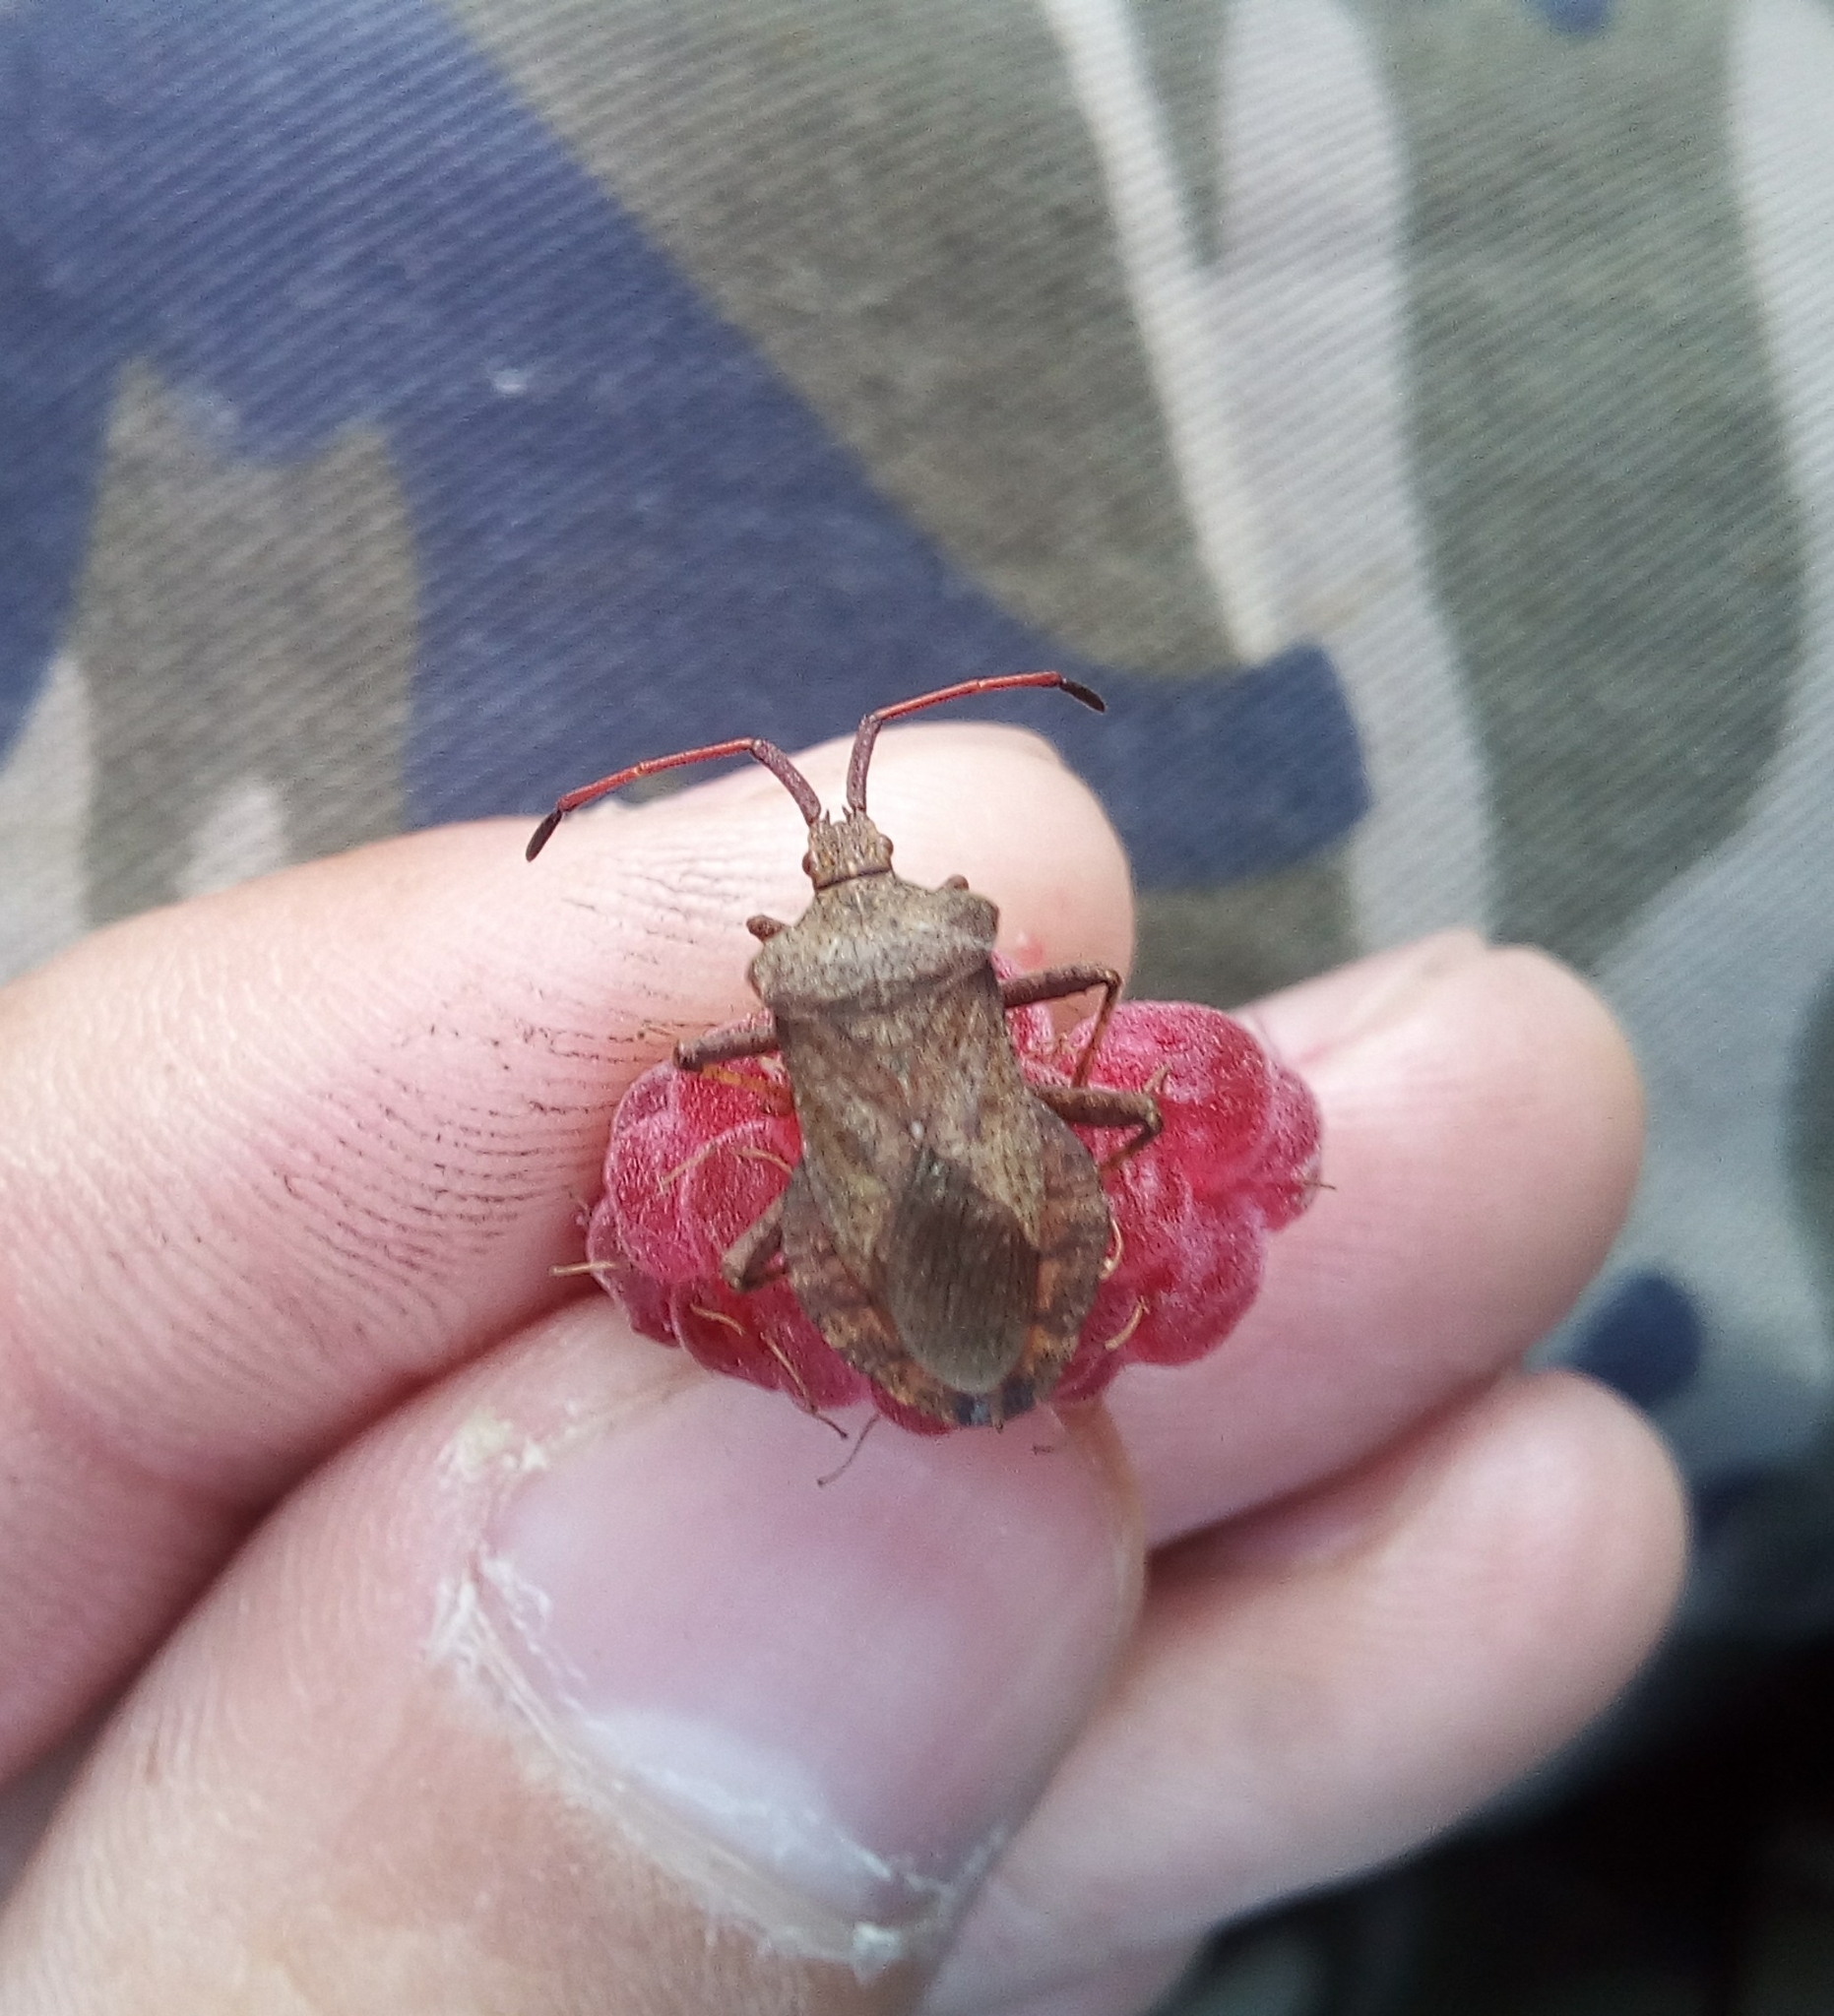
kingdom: Animalia
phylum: Arthropoda
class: Insecta
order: Hemiptera
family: Coreidae
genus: Coreus
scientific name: Coreus marginatus
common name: Dock bug
